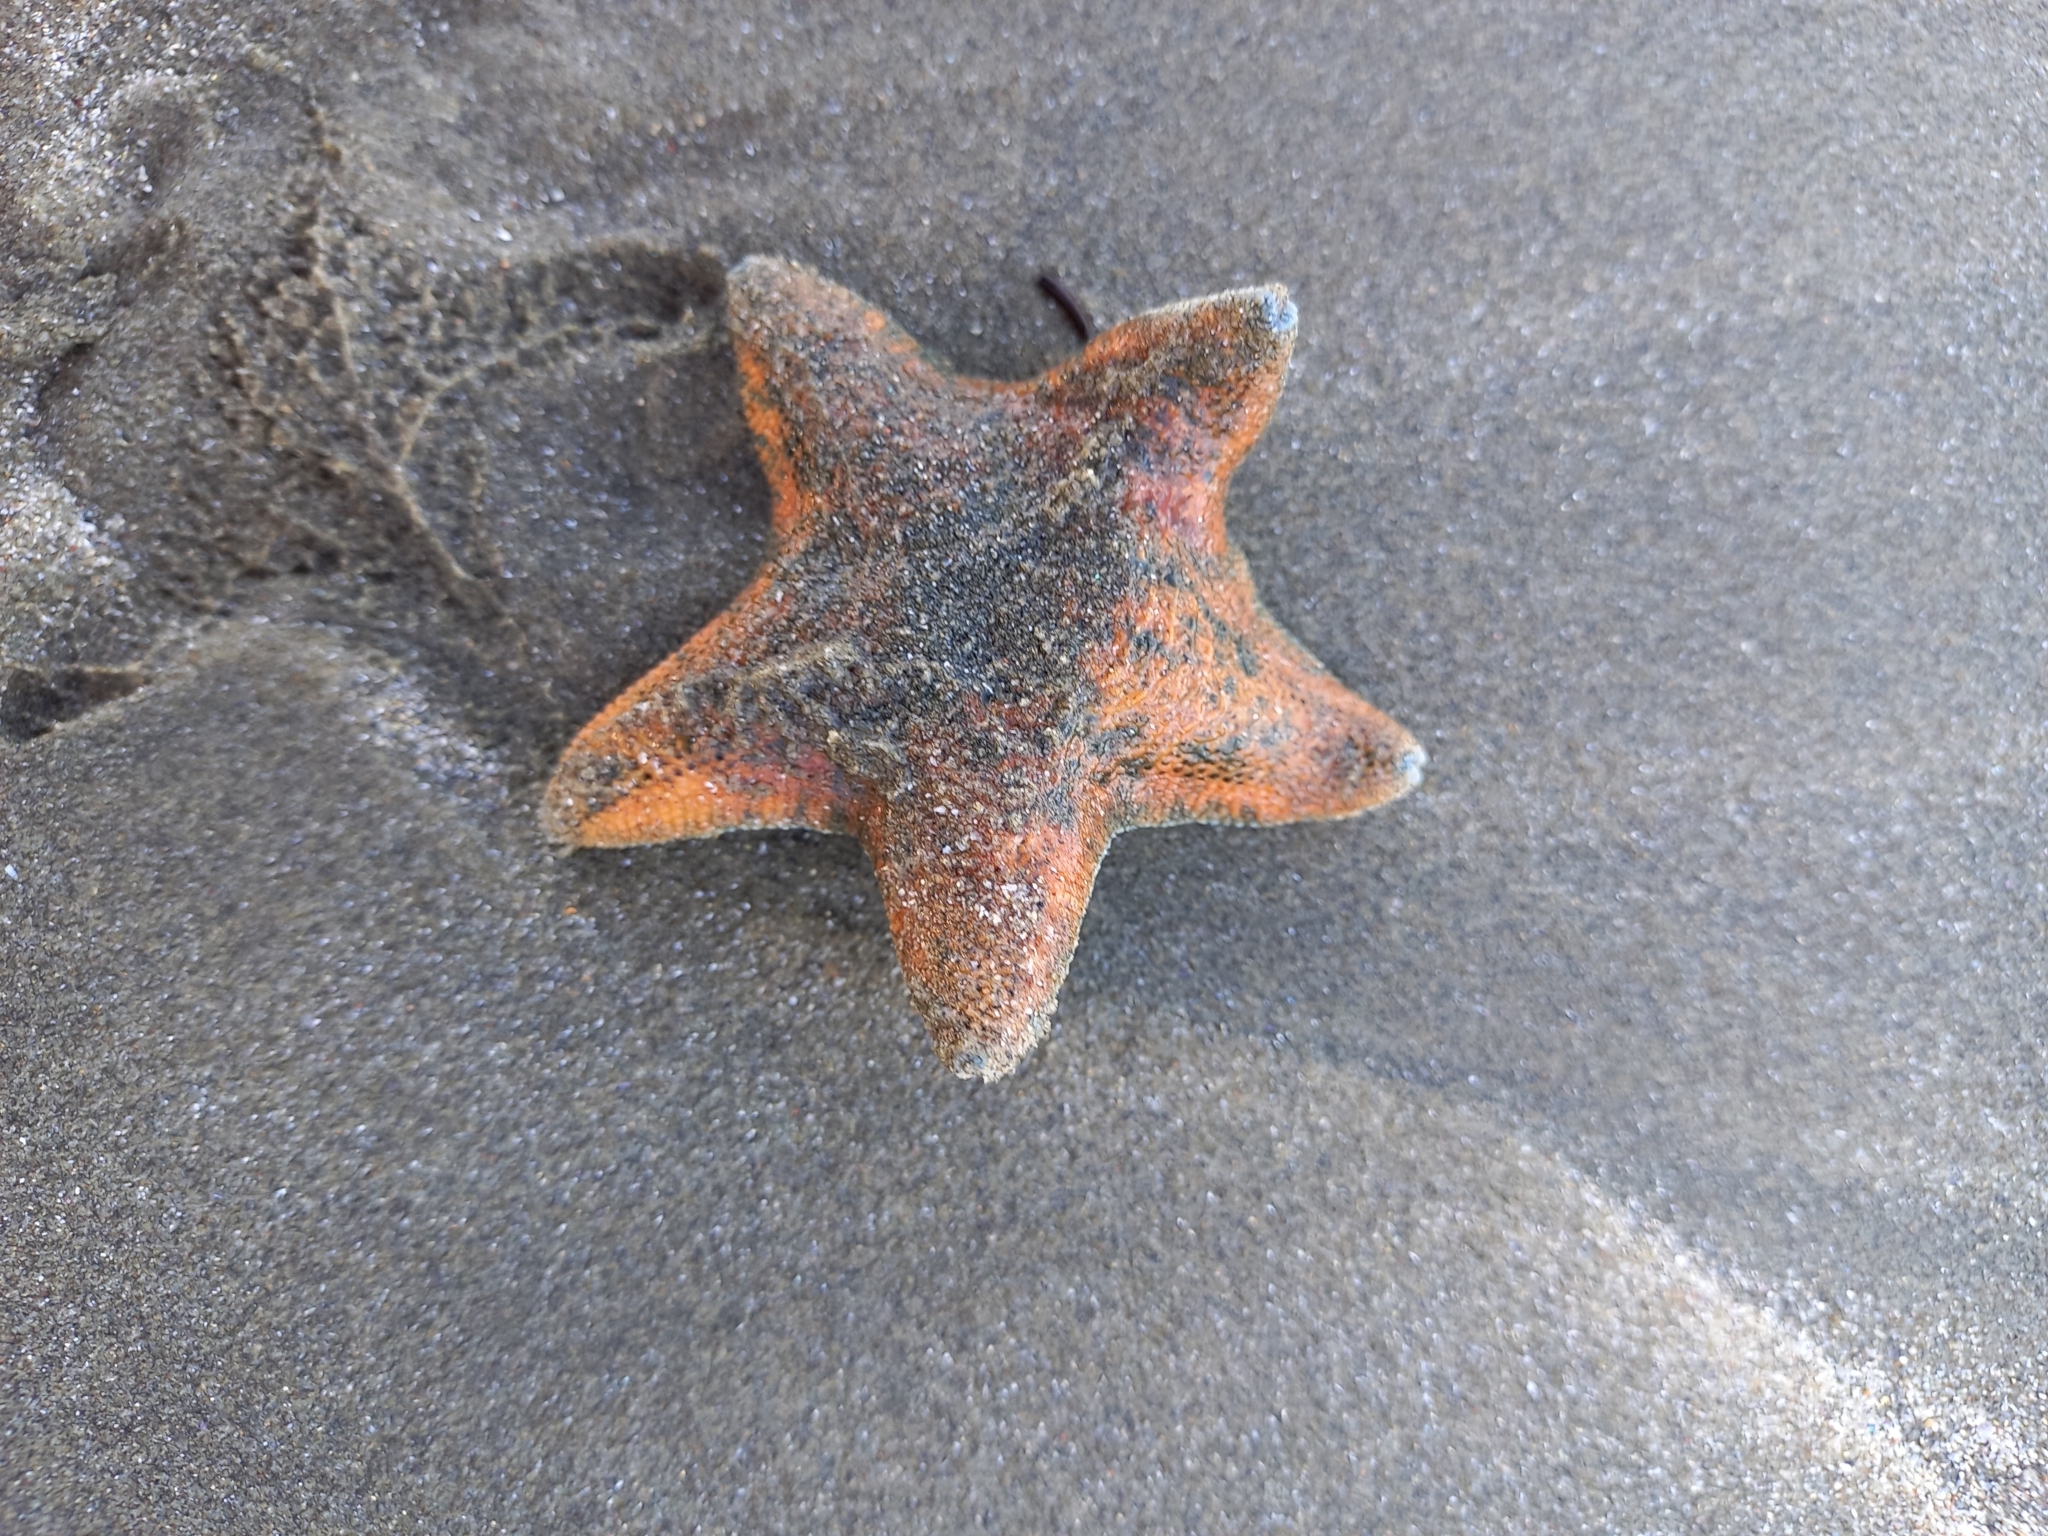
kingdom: Animalia
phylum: Echinodermata
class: Asteroidea
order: Valvatida
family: Asterinidae
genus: Patiriella
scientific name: Patiriella regularis
